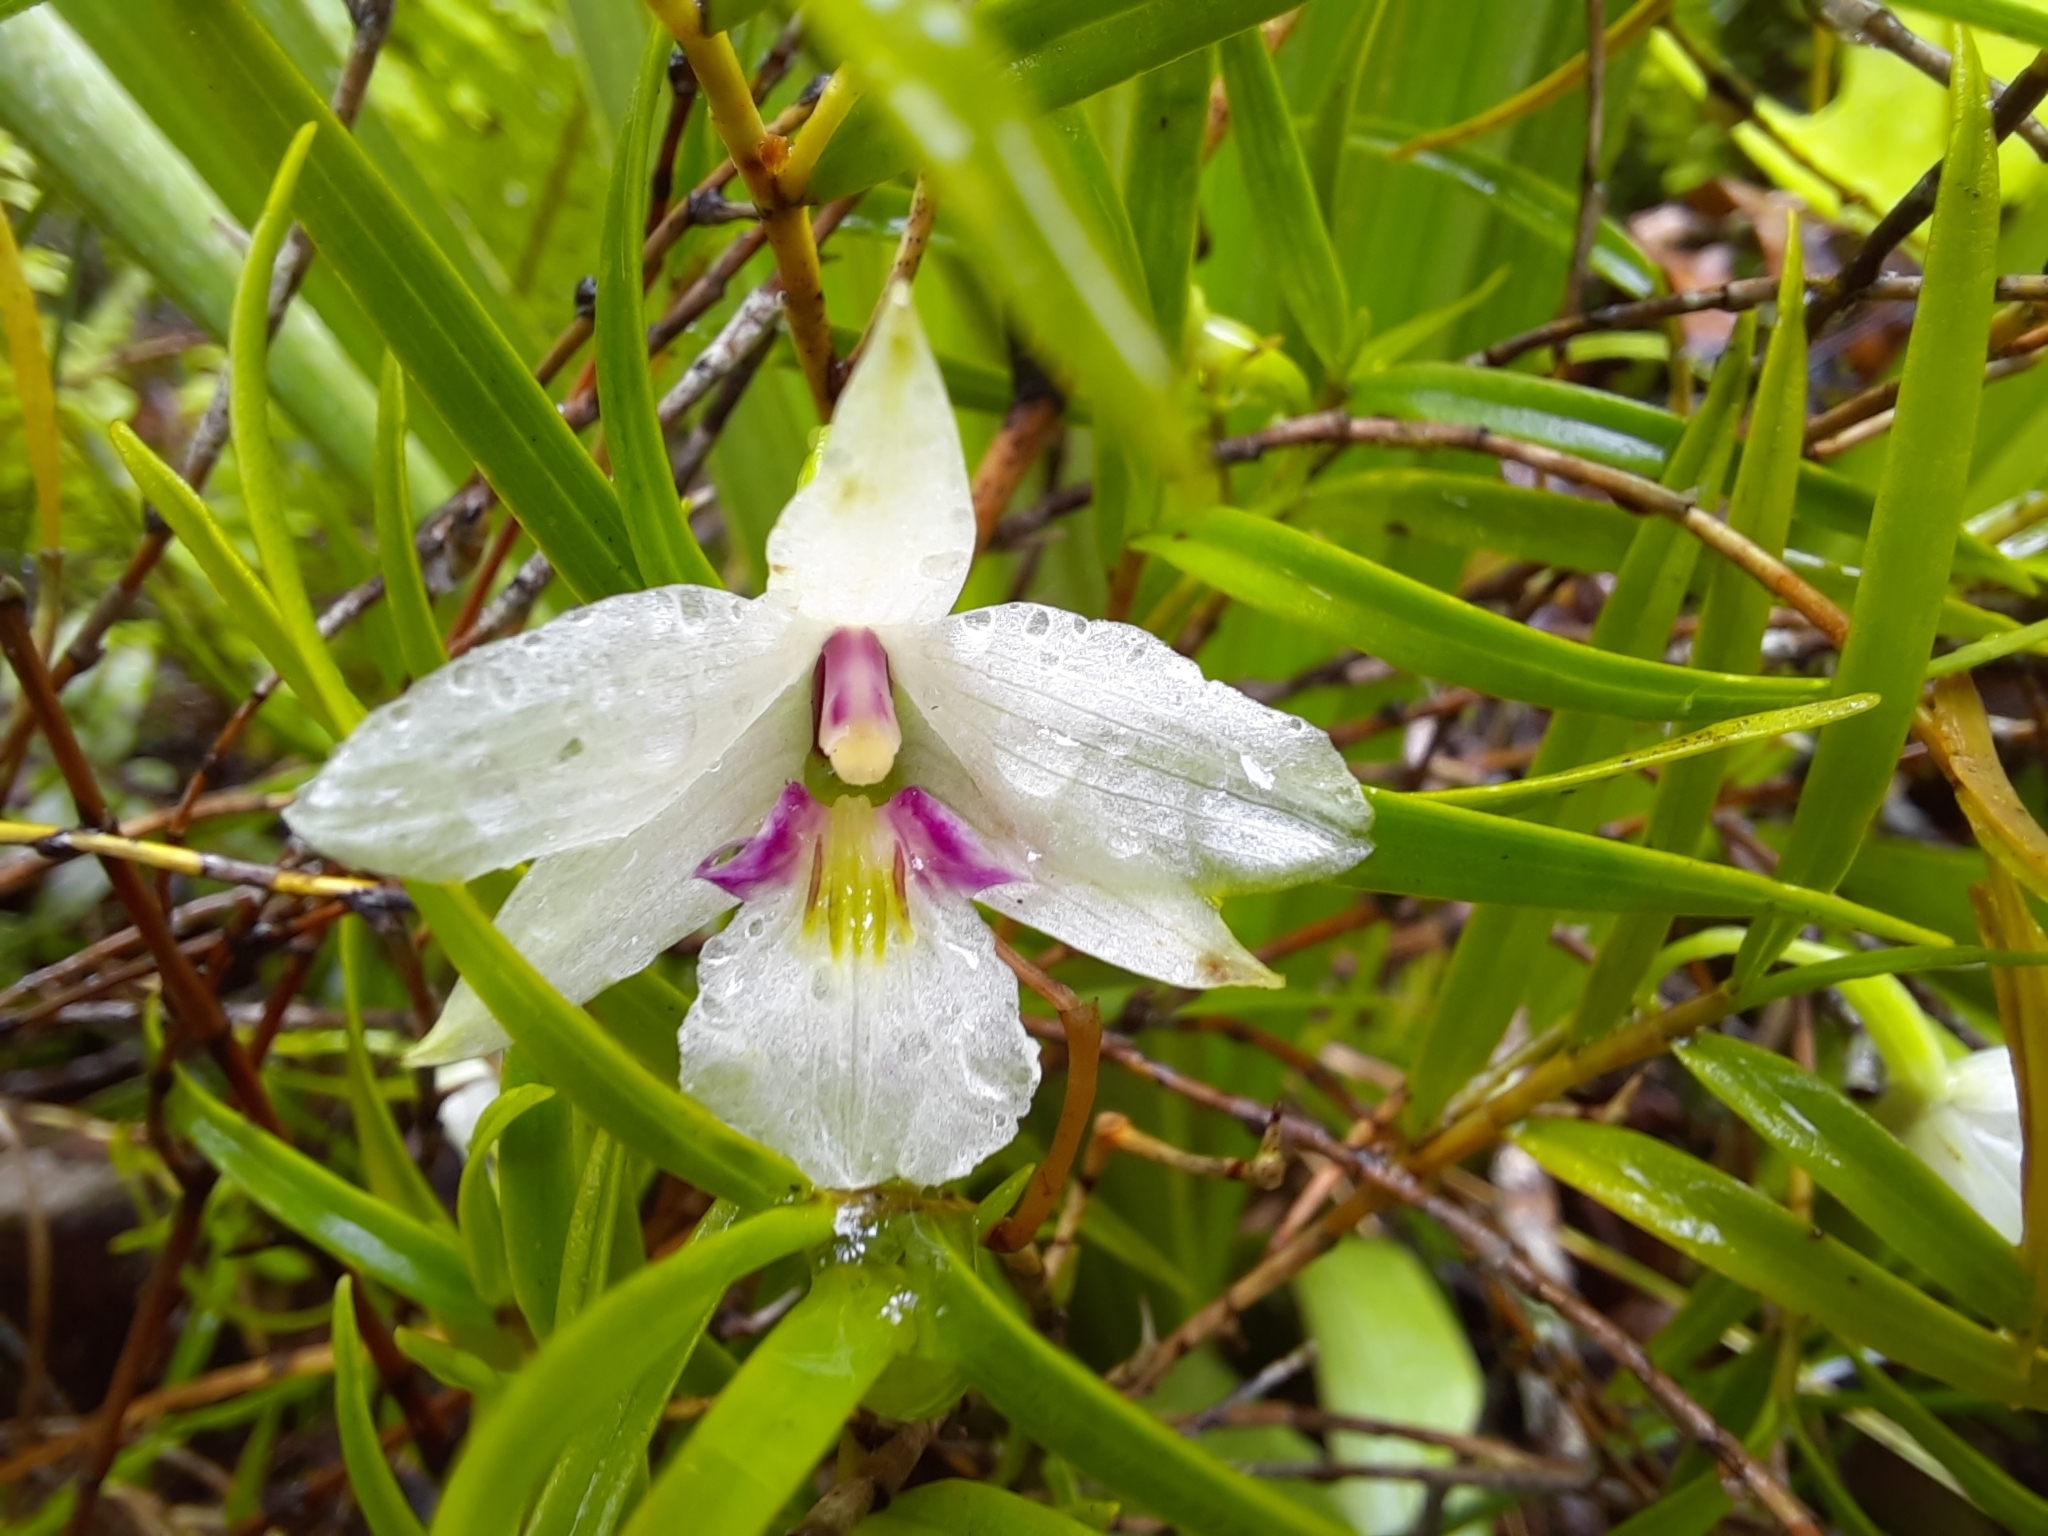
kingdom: Plantae
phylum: Tracheophyta
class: Liliopsida
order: Asparagales
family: Orchidaceae
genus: Dendrobium
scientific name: Dendrobium cunninghamii
